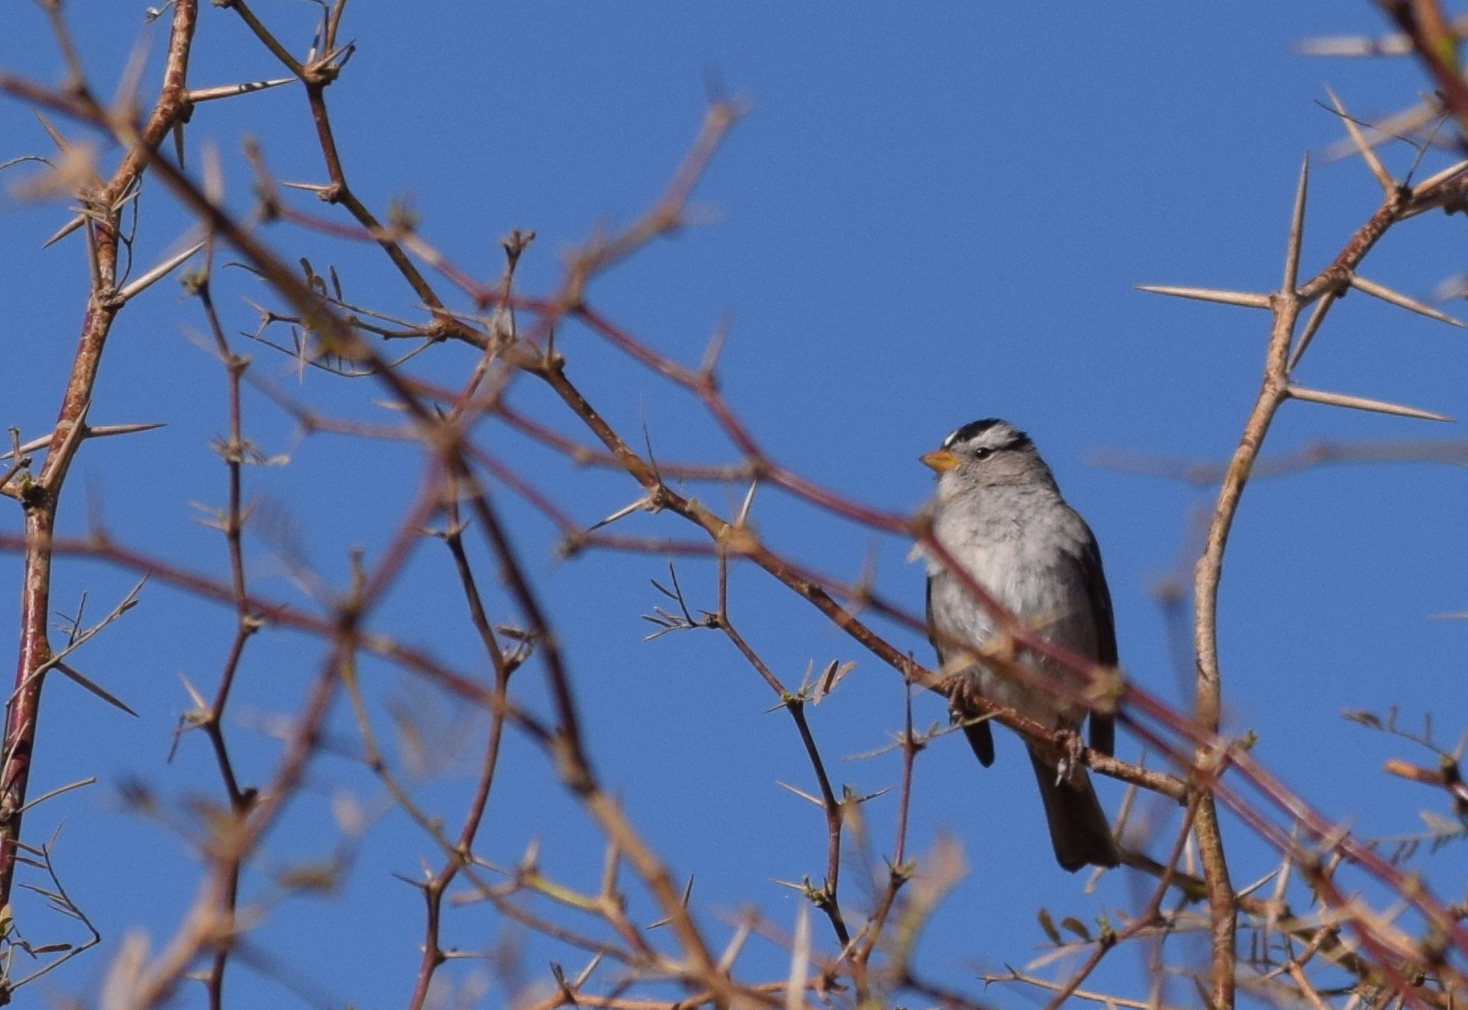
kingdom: Animalia
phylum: Chordata
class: Aves
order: Passeriformes
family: Passerellidae
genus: Zonotrichia
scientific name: Zonotrichia leucophrys
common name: White-crowned sparrow
